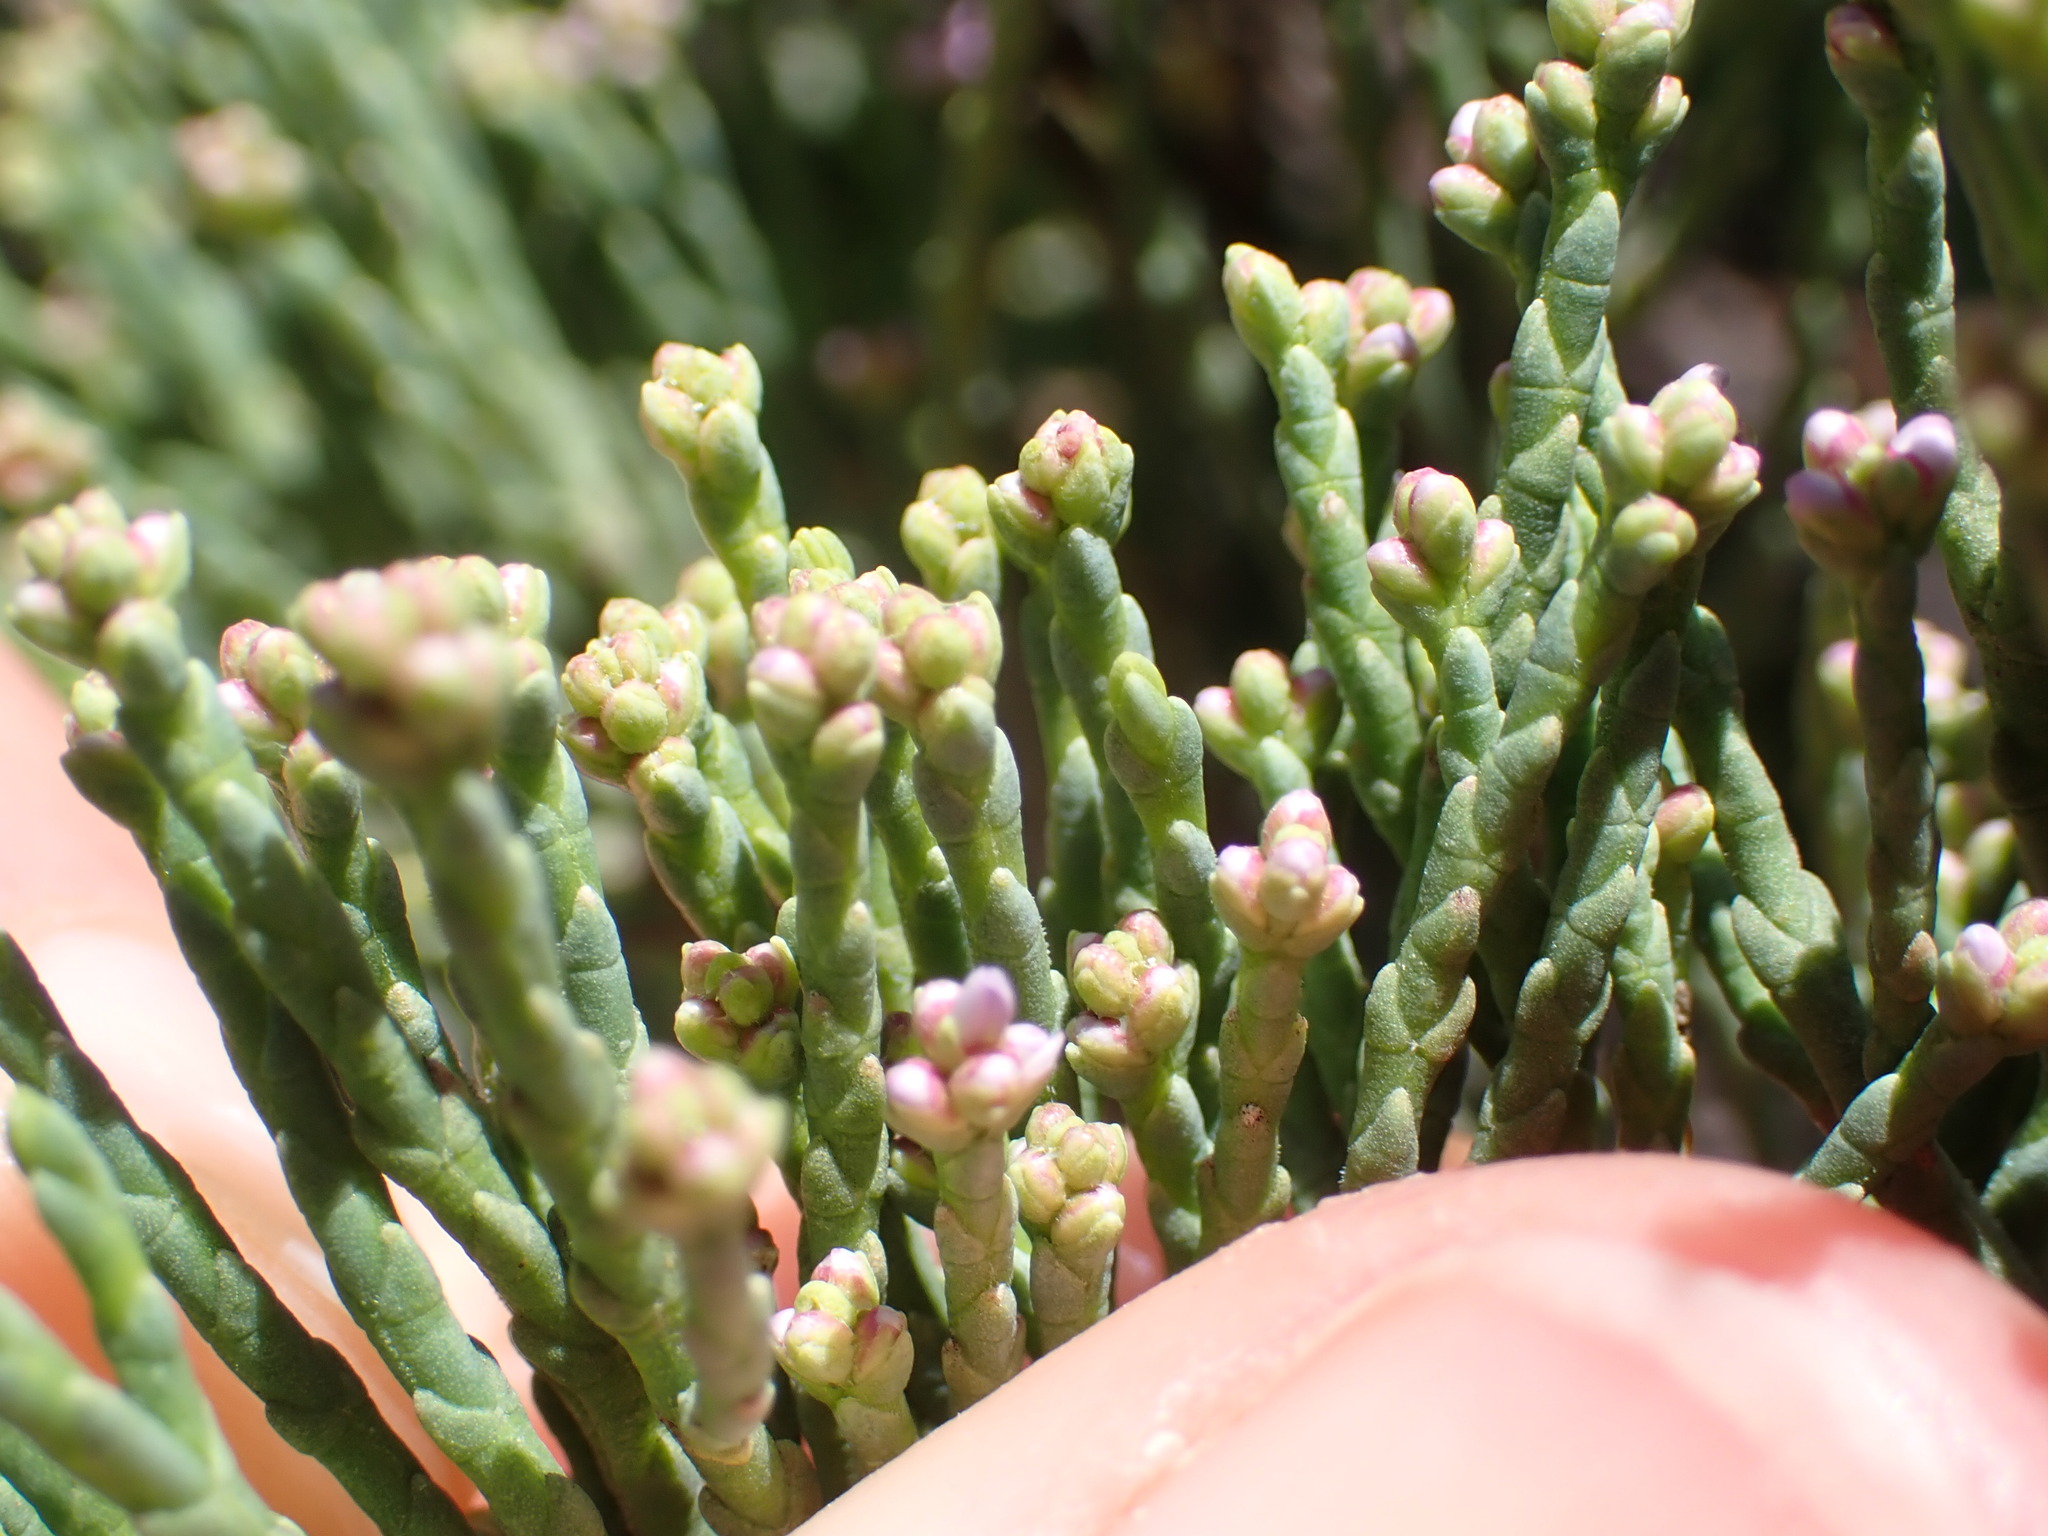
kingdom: Plantae
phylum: Tracheophyta
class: Magnoliopsida
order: Lamiales
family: Plantaginaceae
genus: Veronica
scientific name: Veronica cupressoides
